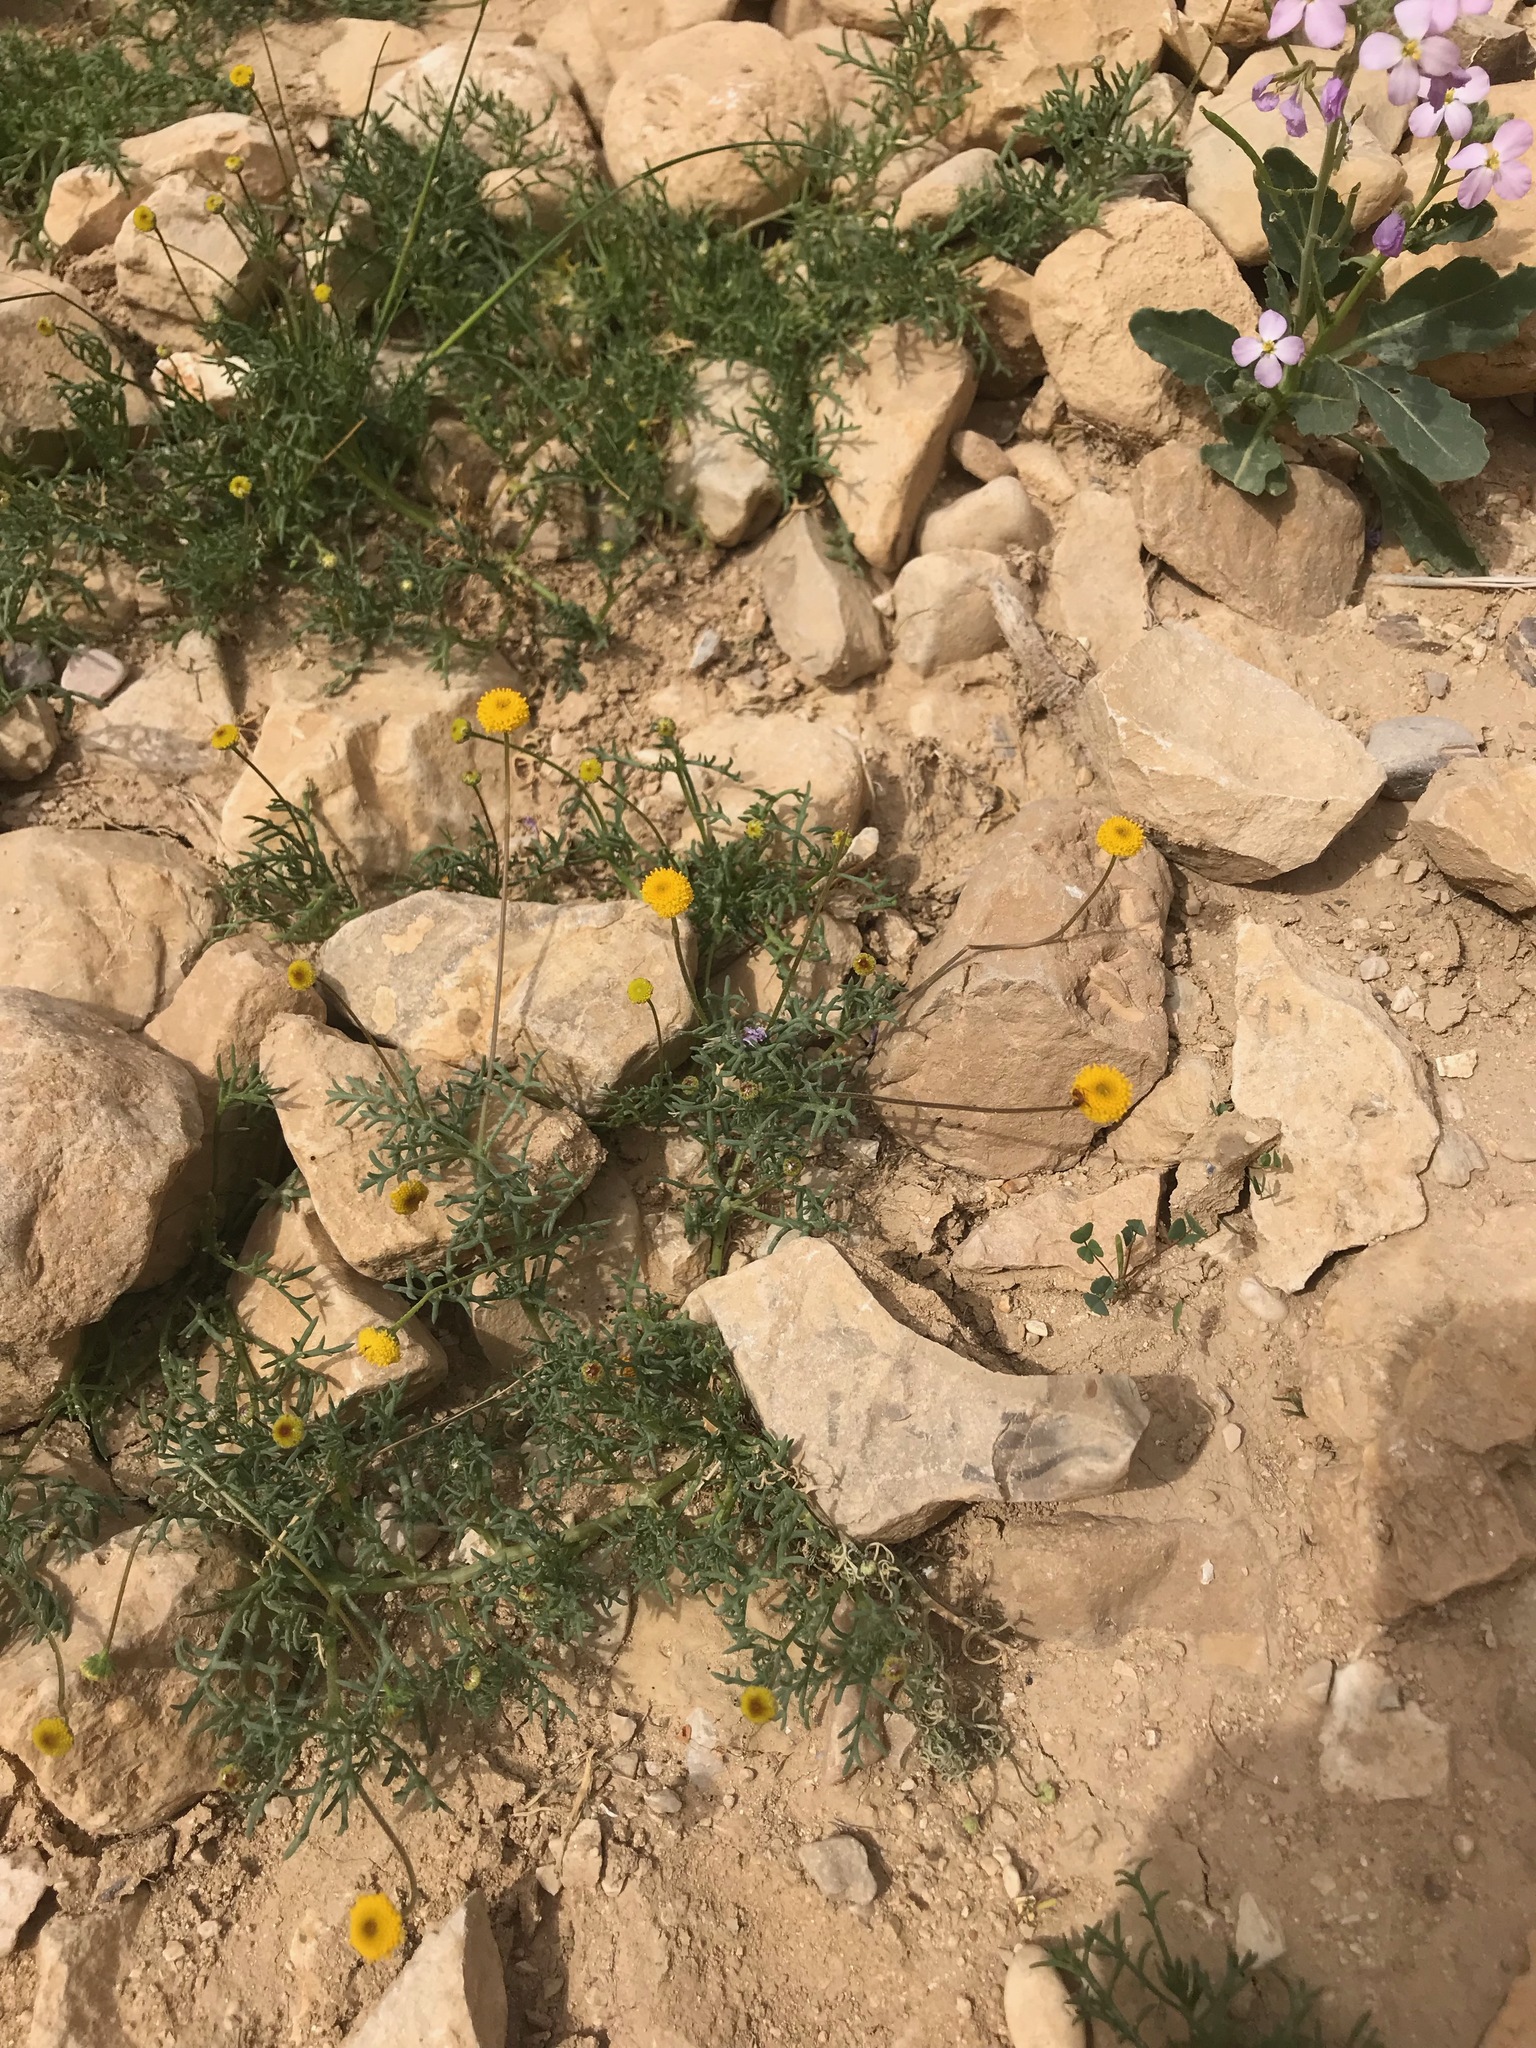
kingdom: Plantae
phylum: Tracheophyta
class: Magnoliopsida
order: Asterales
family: Asteraceae
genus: Otoglyphis
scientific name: Otoglyphis factorovskyi
